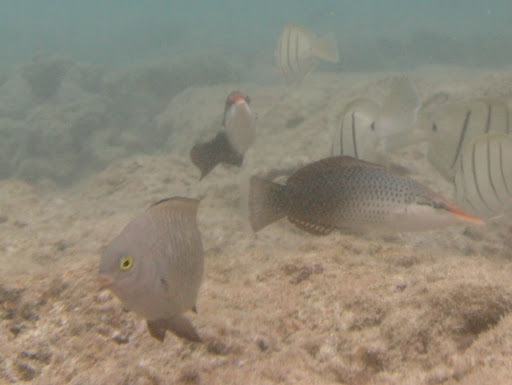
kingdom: Animalia
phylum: Chordata
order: Perciformes
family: Pomacentridae
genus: Stegastes
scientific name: Stegastes fasciolatus
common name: Pacific gregory
